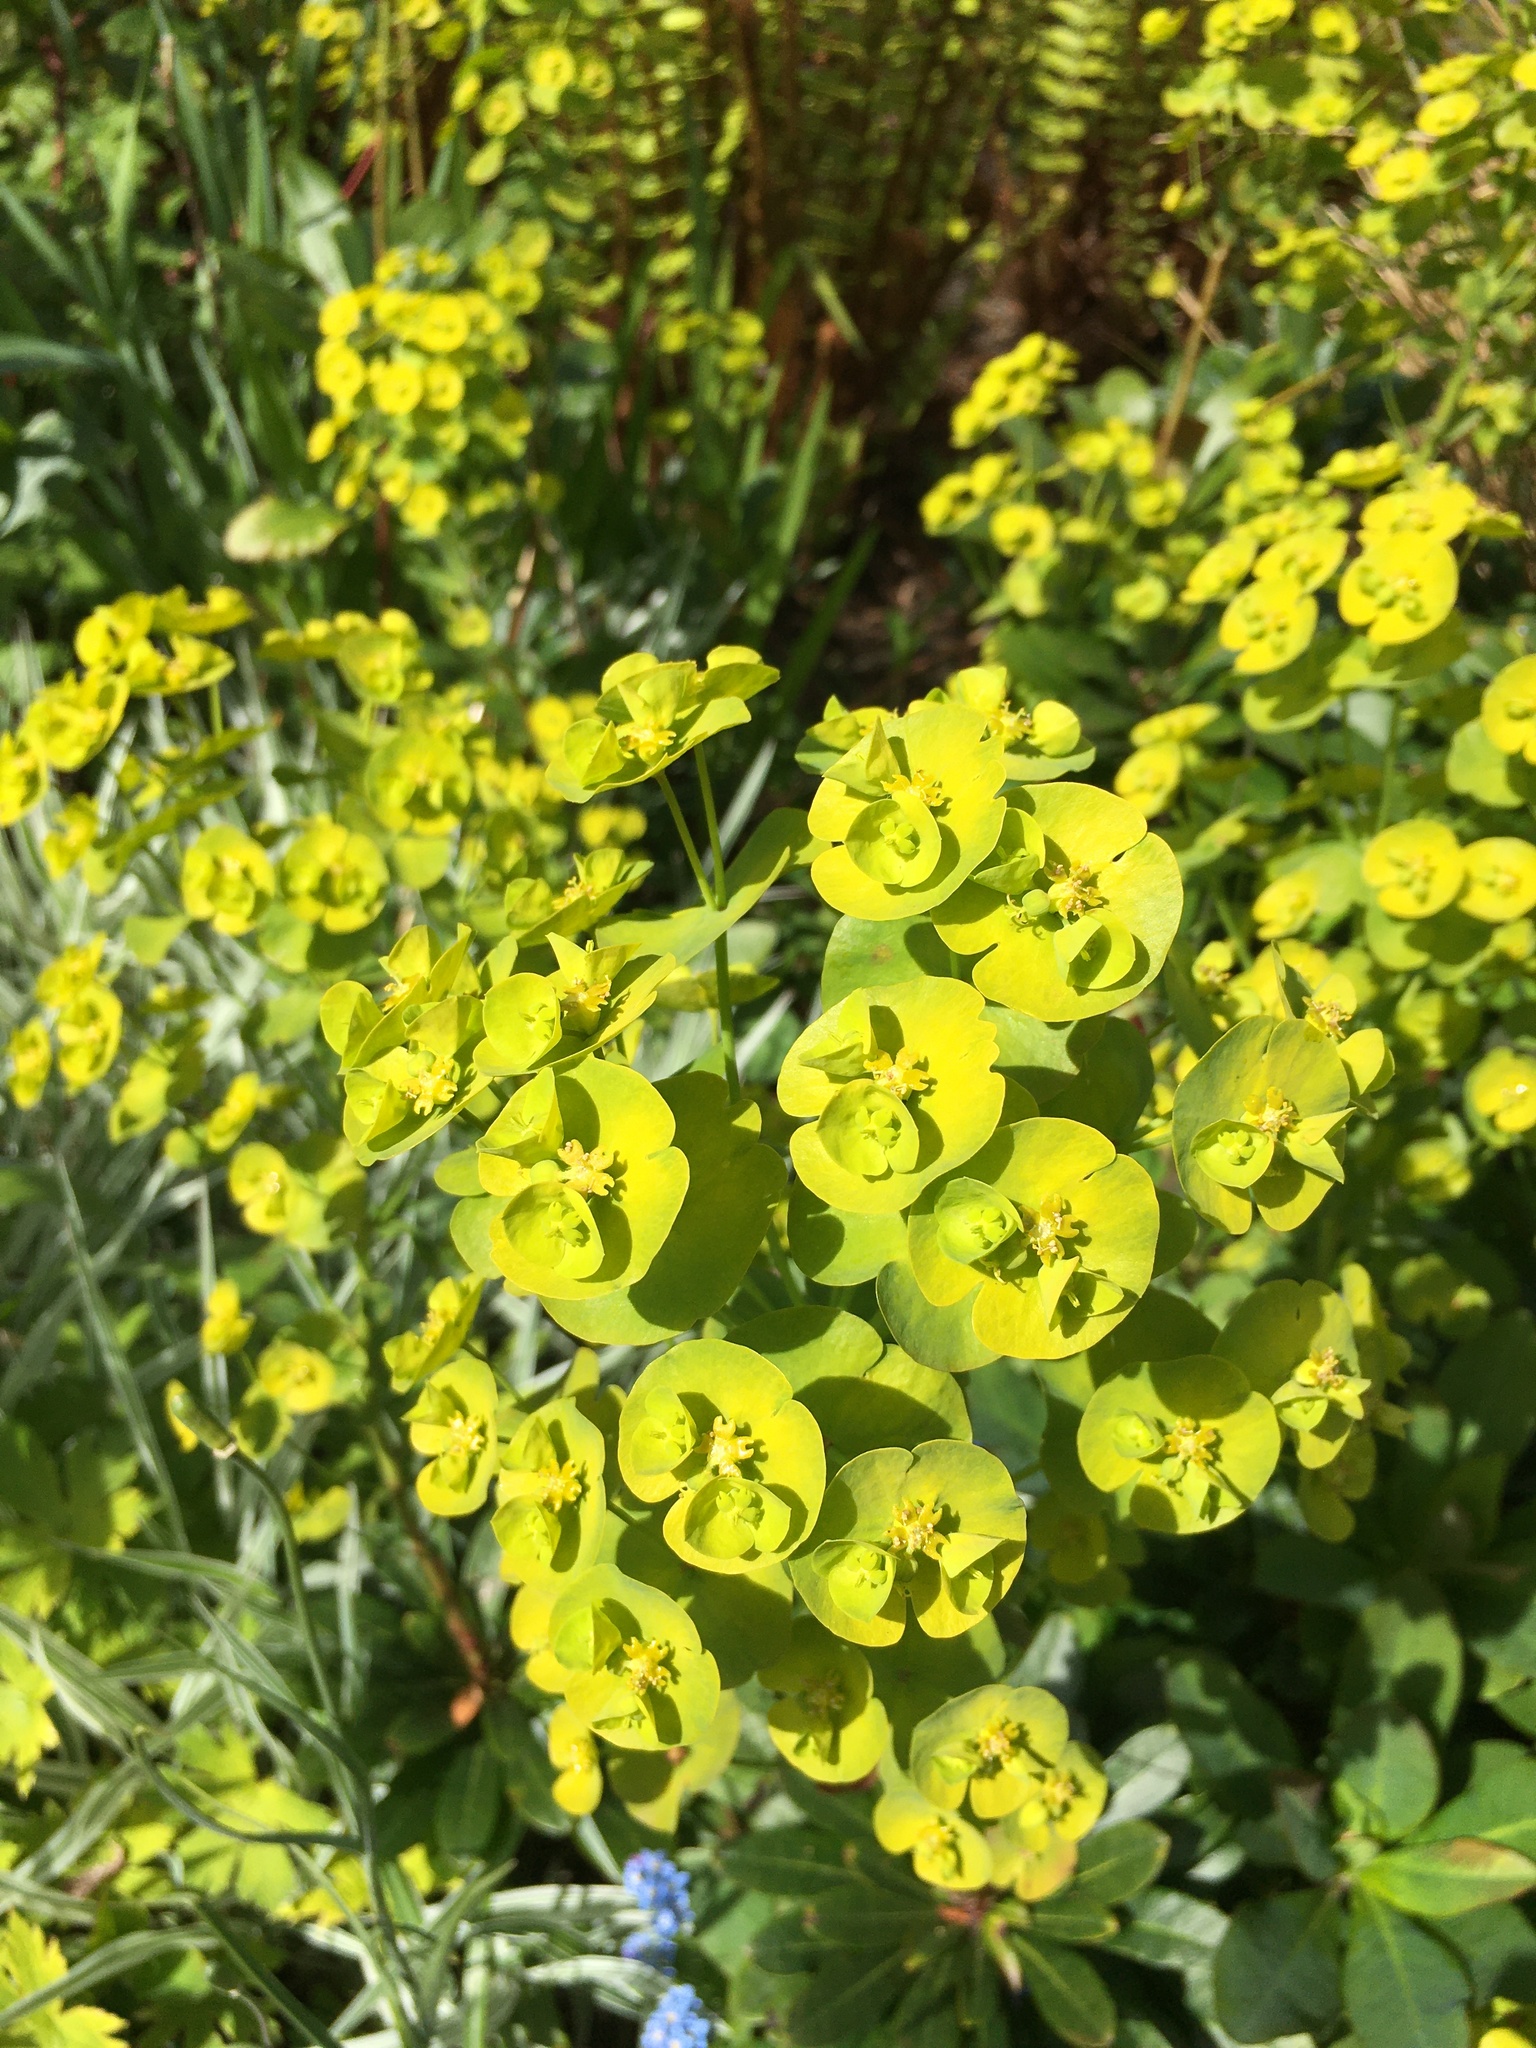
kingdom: Plantae
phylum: Tracheophyta
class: Magnoliopsida
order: Malpighiales
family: Euphorbiaceae
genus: Euphorbia
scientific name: Euphorbia amygdaloides
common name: Wood spurge
